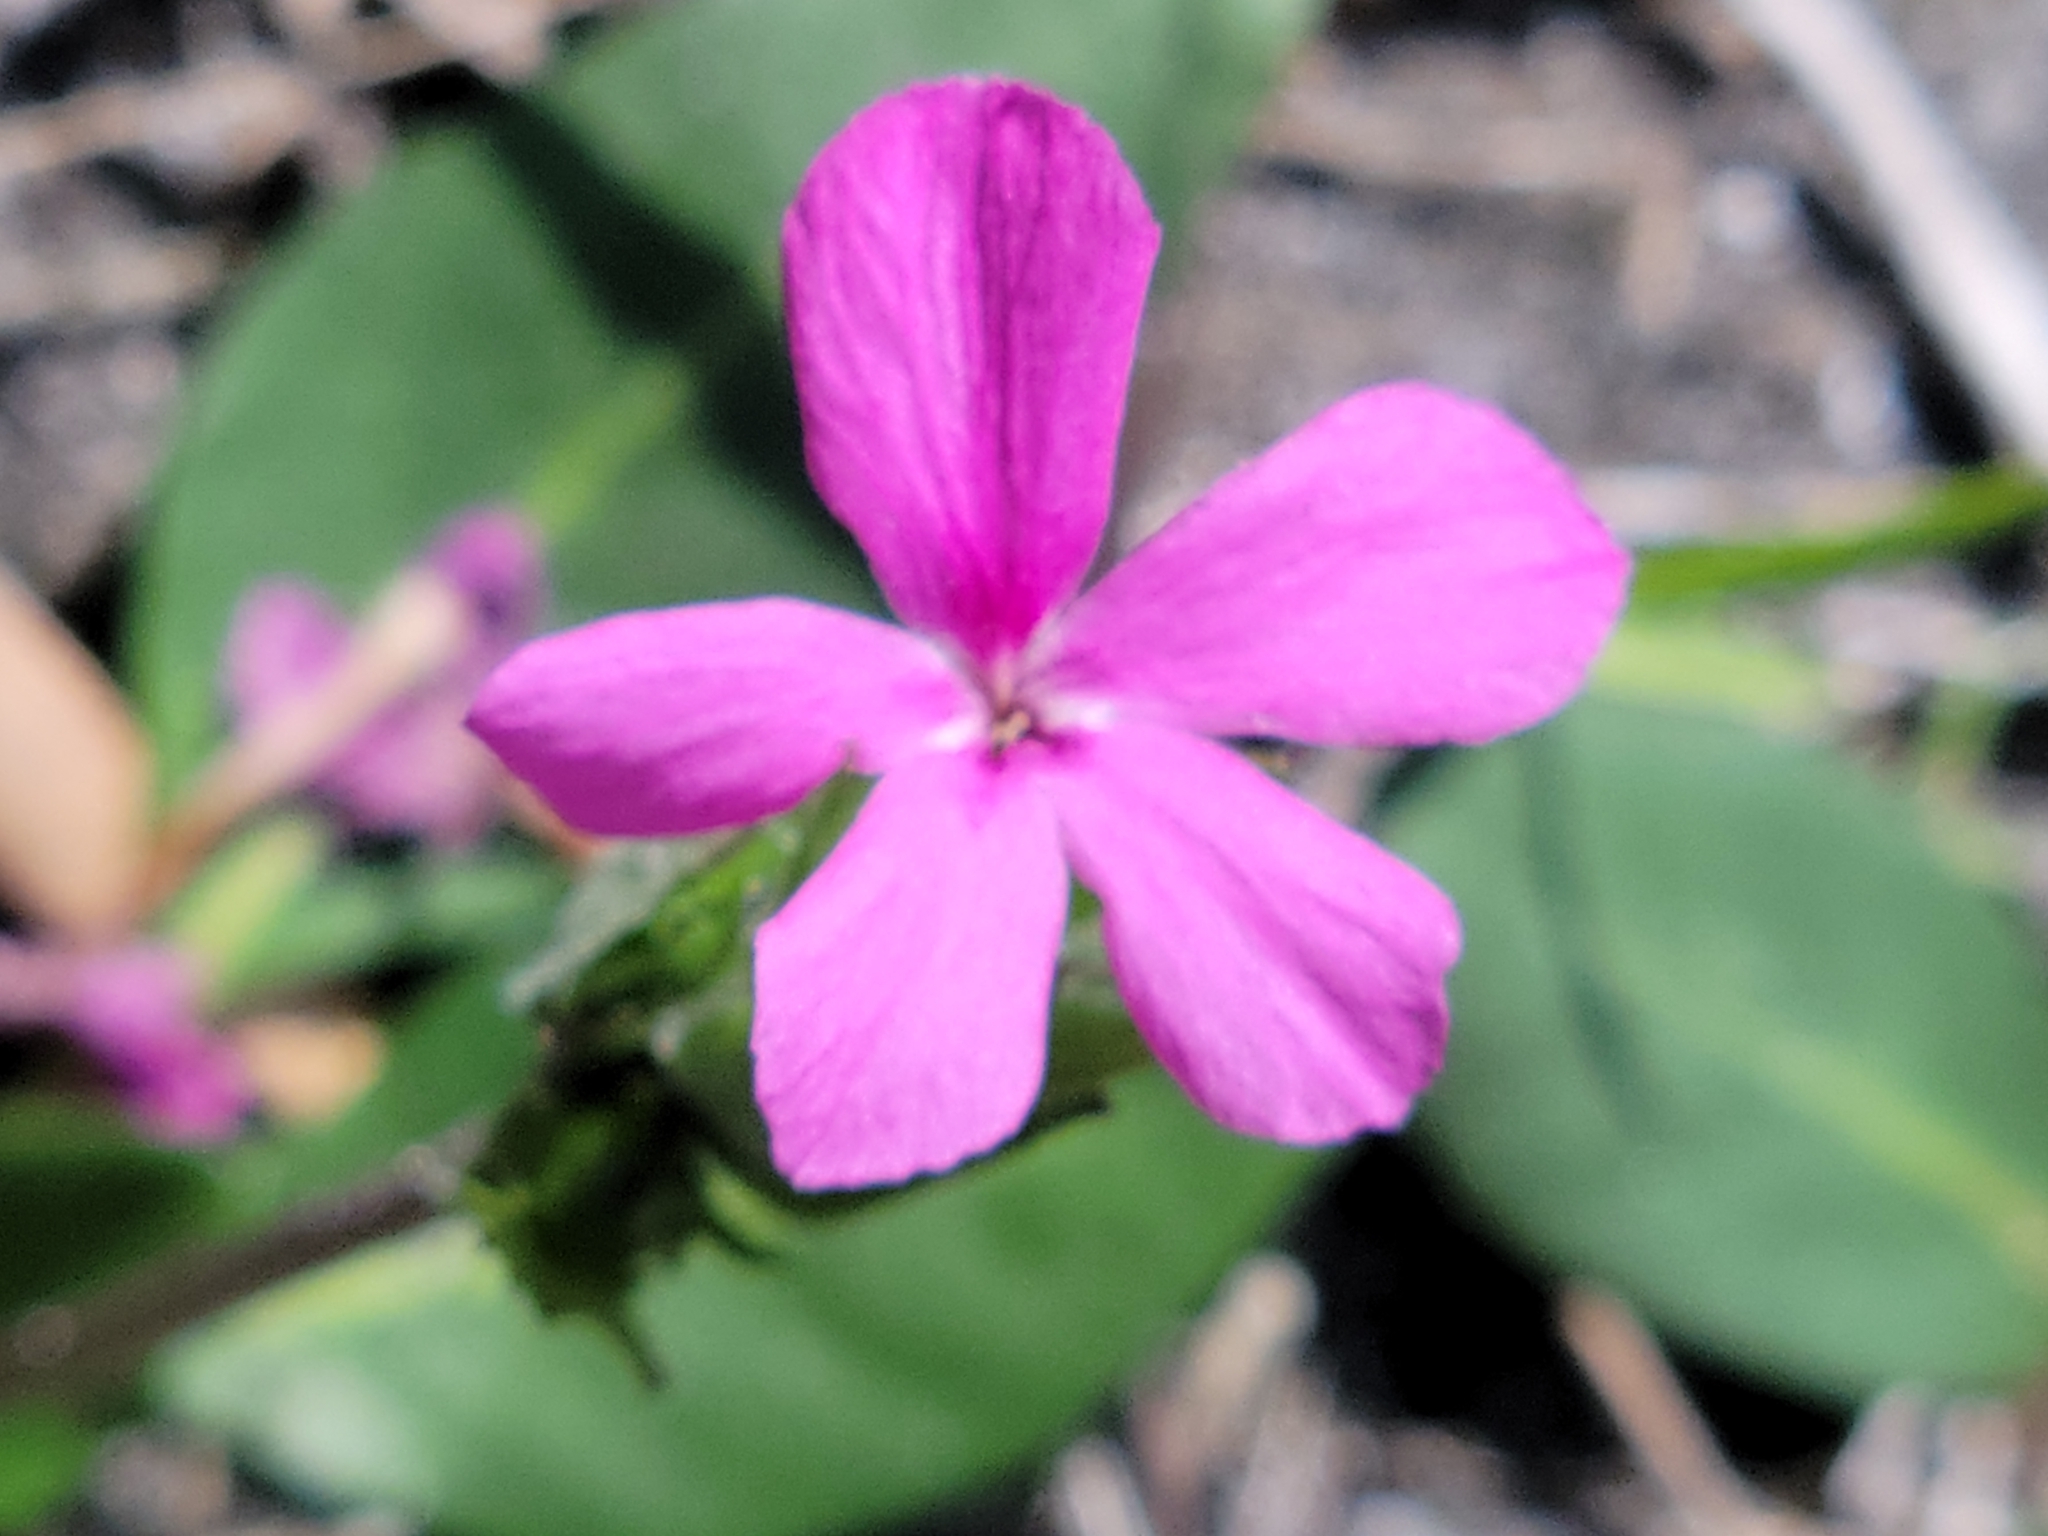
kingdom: Plantae
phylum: Tracheophyta
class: Magnoliopsida
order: Lamiales
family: Acanthaceae
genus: Stenandrium
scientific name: Stenandrium dulce
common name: Pinklet
